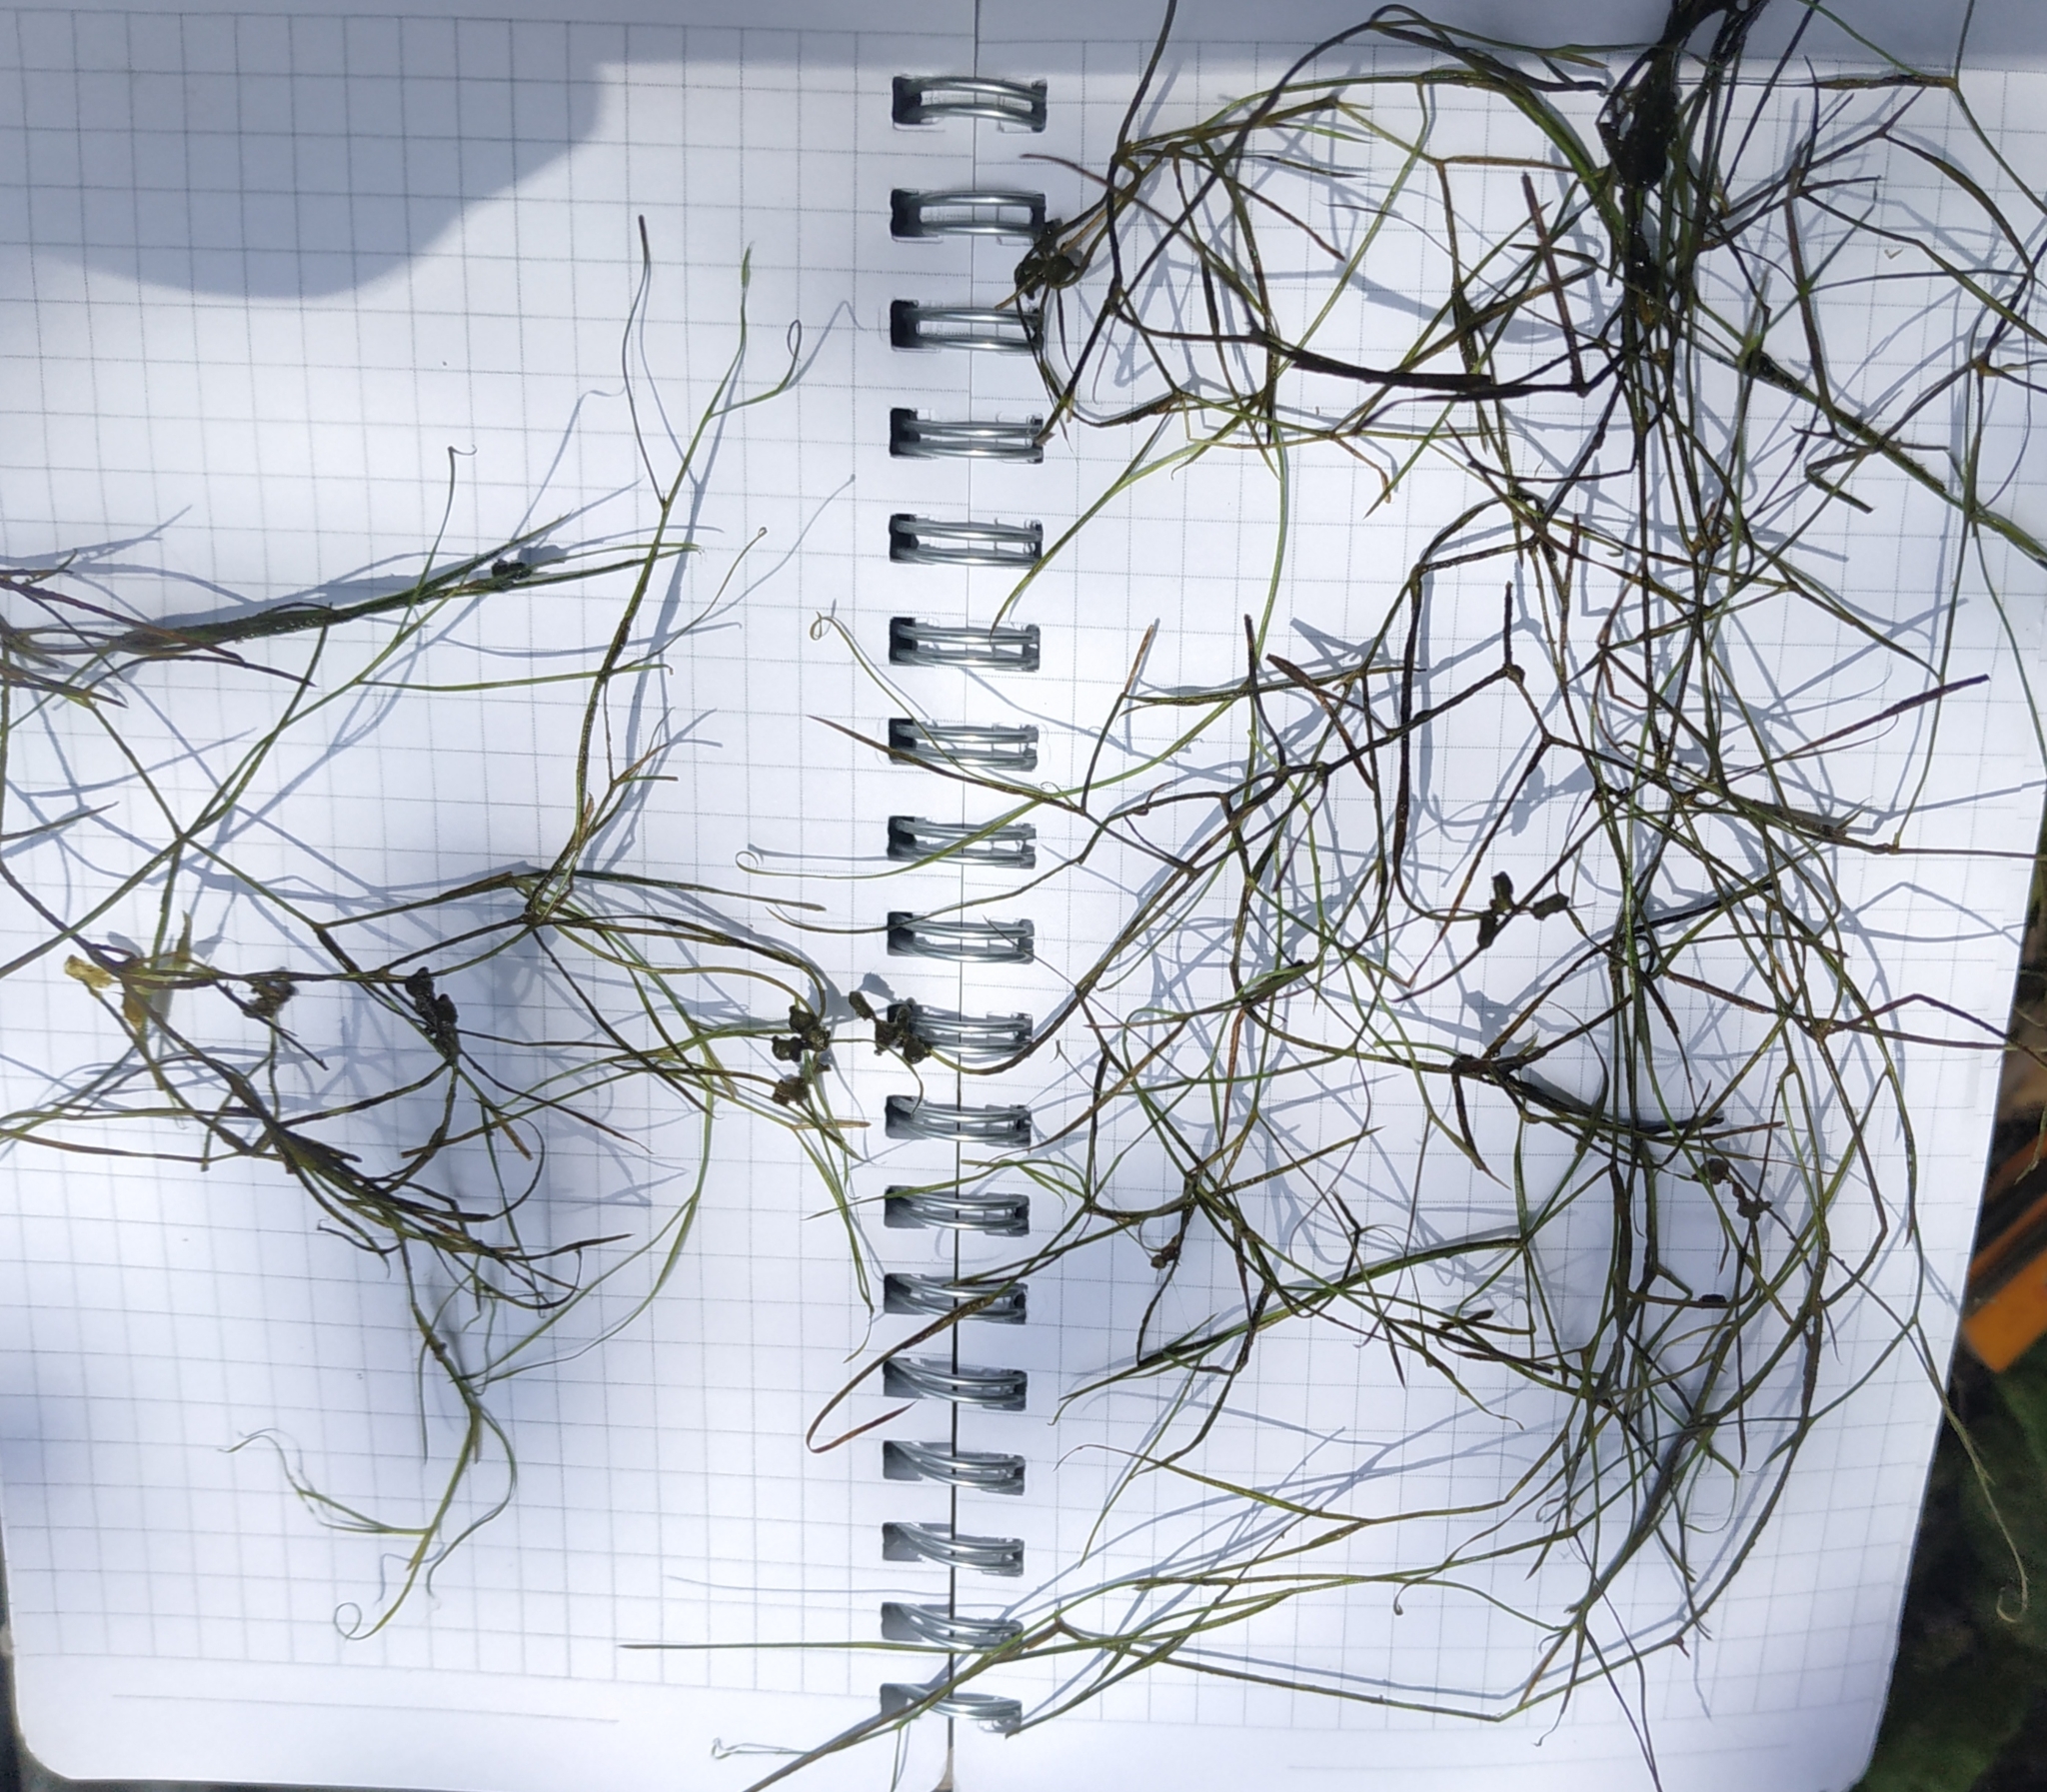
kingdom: Plantae
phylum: Tracheophyta
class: Liliopsida
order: Alismatales
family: Potamogetonaceae
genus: Potamogeton
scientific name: Potamogeton trichoides
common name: Hairlike pondweed
